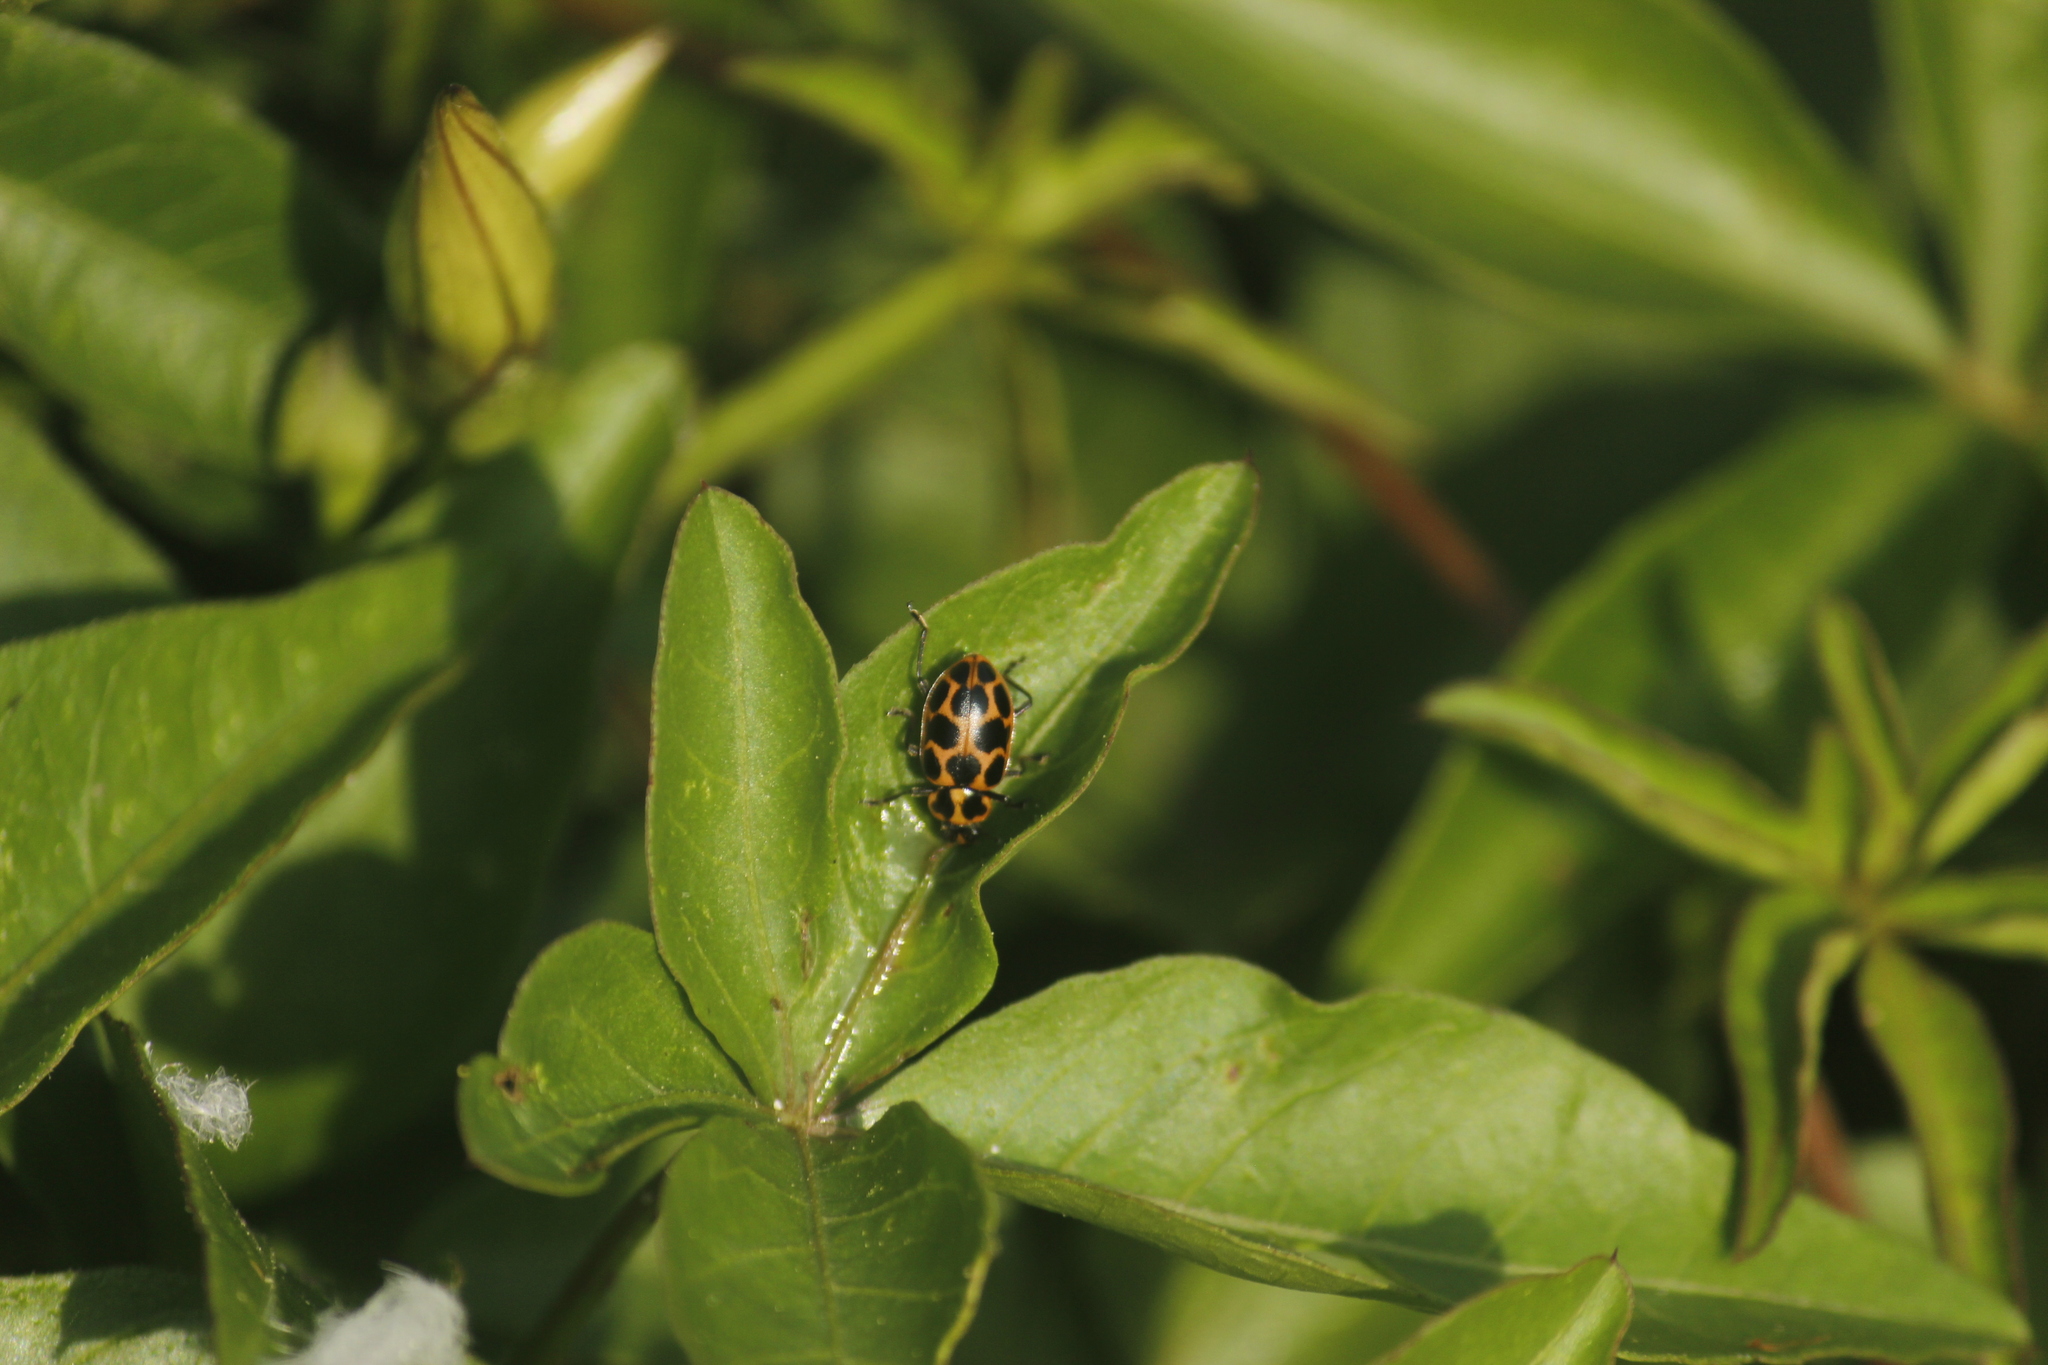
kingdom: Animalia
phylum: Arthropoda
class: Insecta
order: Coleoptera
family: Coccinellidae
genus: Coleomegilla
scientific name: Coleomegilla maculata
